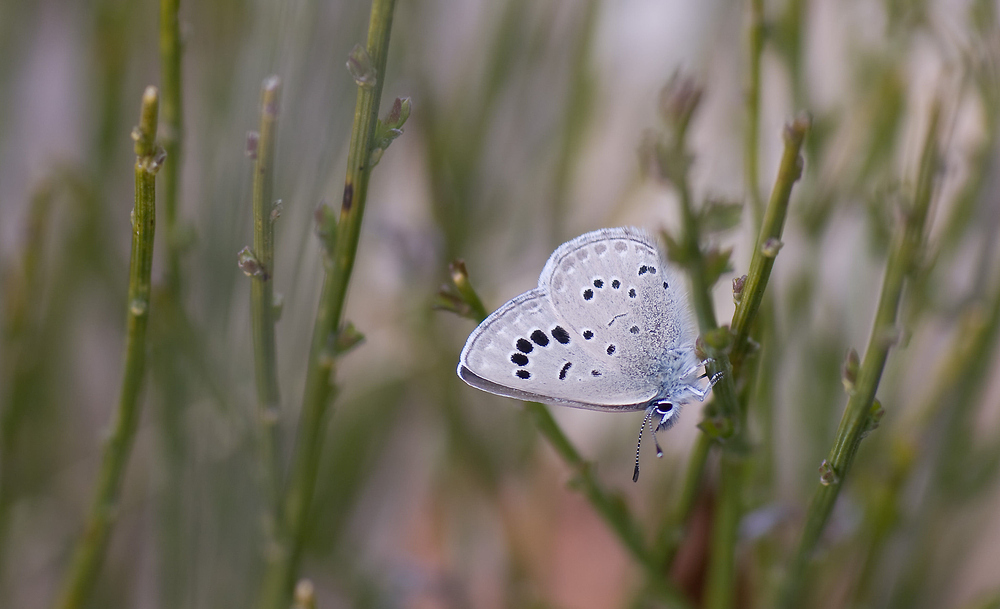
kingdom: Animalia
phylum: Arthropoda
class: Insecta
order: Lepidoptera
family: Lycaenidae
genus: Glaucopsyche
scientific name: Glaucopsyche melanops
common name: Black-eyed blue
